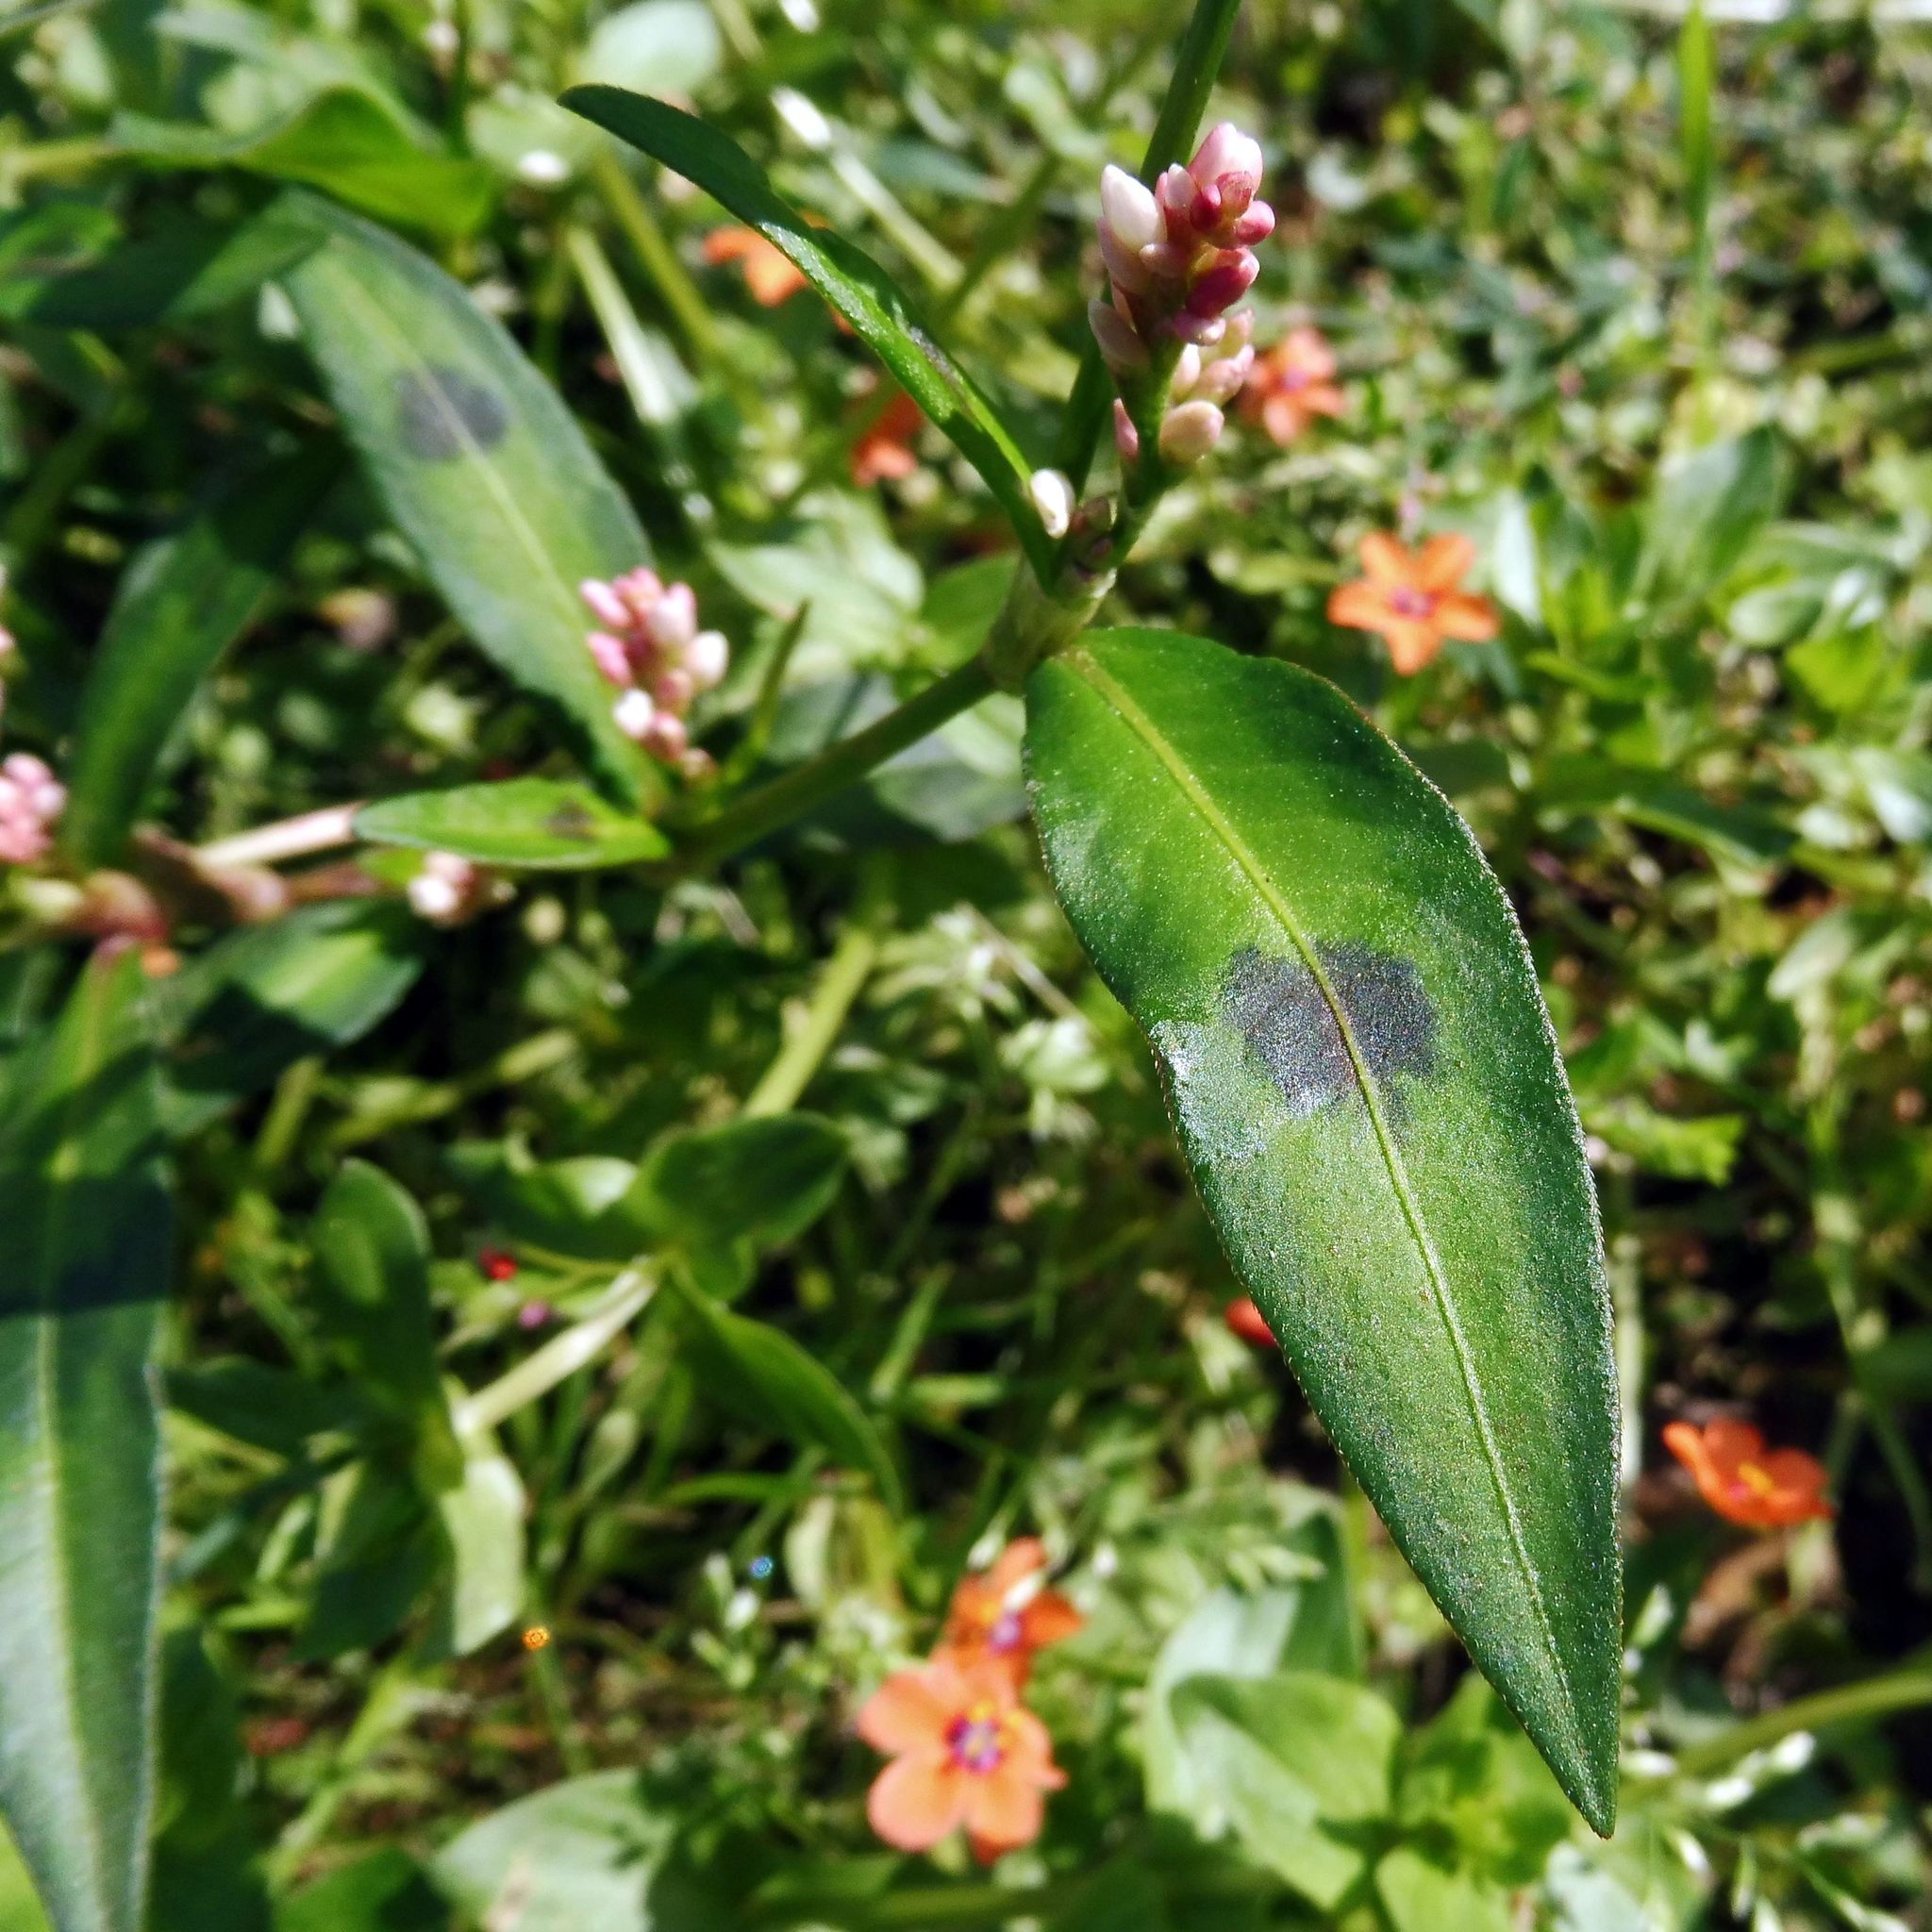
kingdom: Plantae
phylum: Tracheophyta
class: Magnoliopsida
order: Caryophyllales
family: Polygonaceae
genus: Persicaria
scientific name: Persicaria maculosa
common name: Redshank
